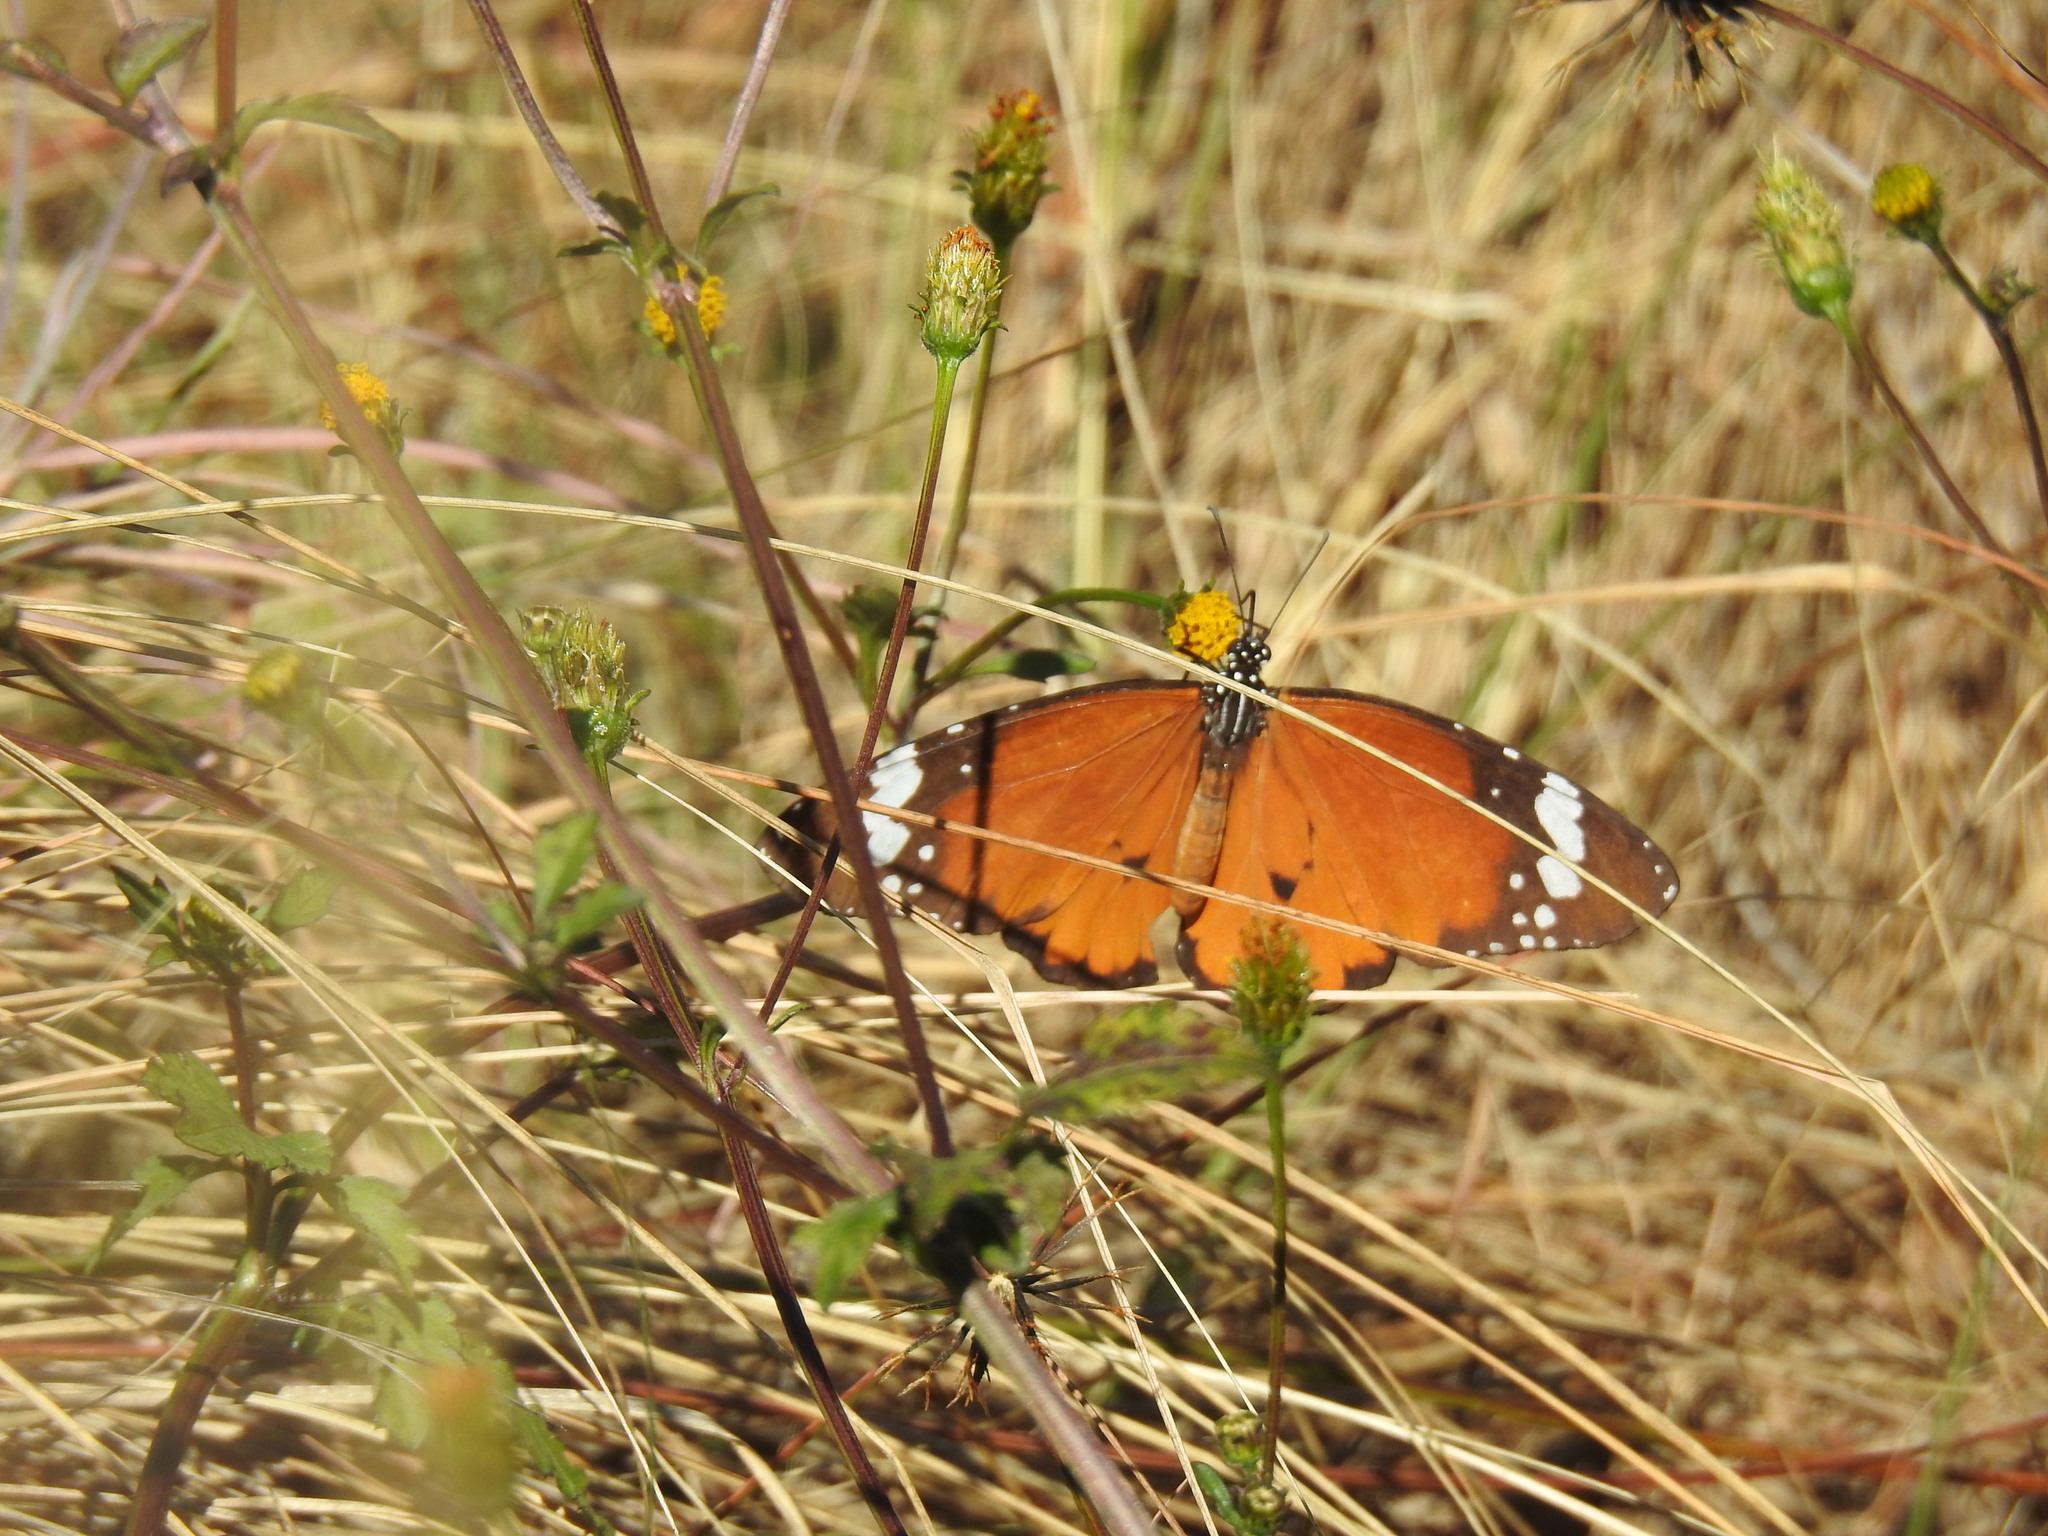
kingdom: Animalia
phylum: Arthropoda
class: Insecta
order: Lepidoptera
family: Nymphalidae
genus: Danaus
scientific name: Danaus chrysippus
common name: Plain tiger
